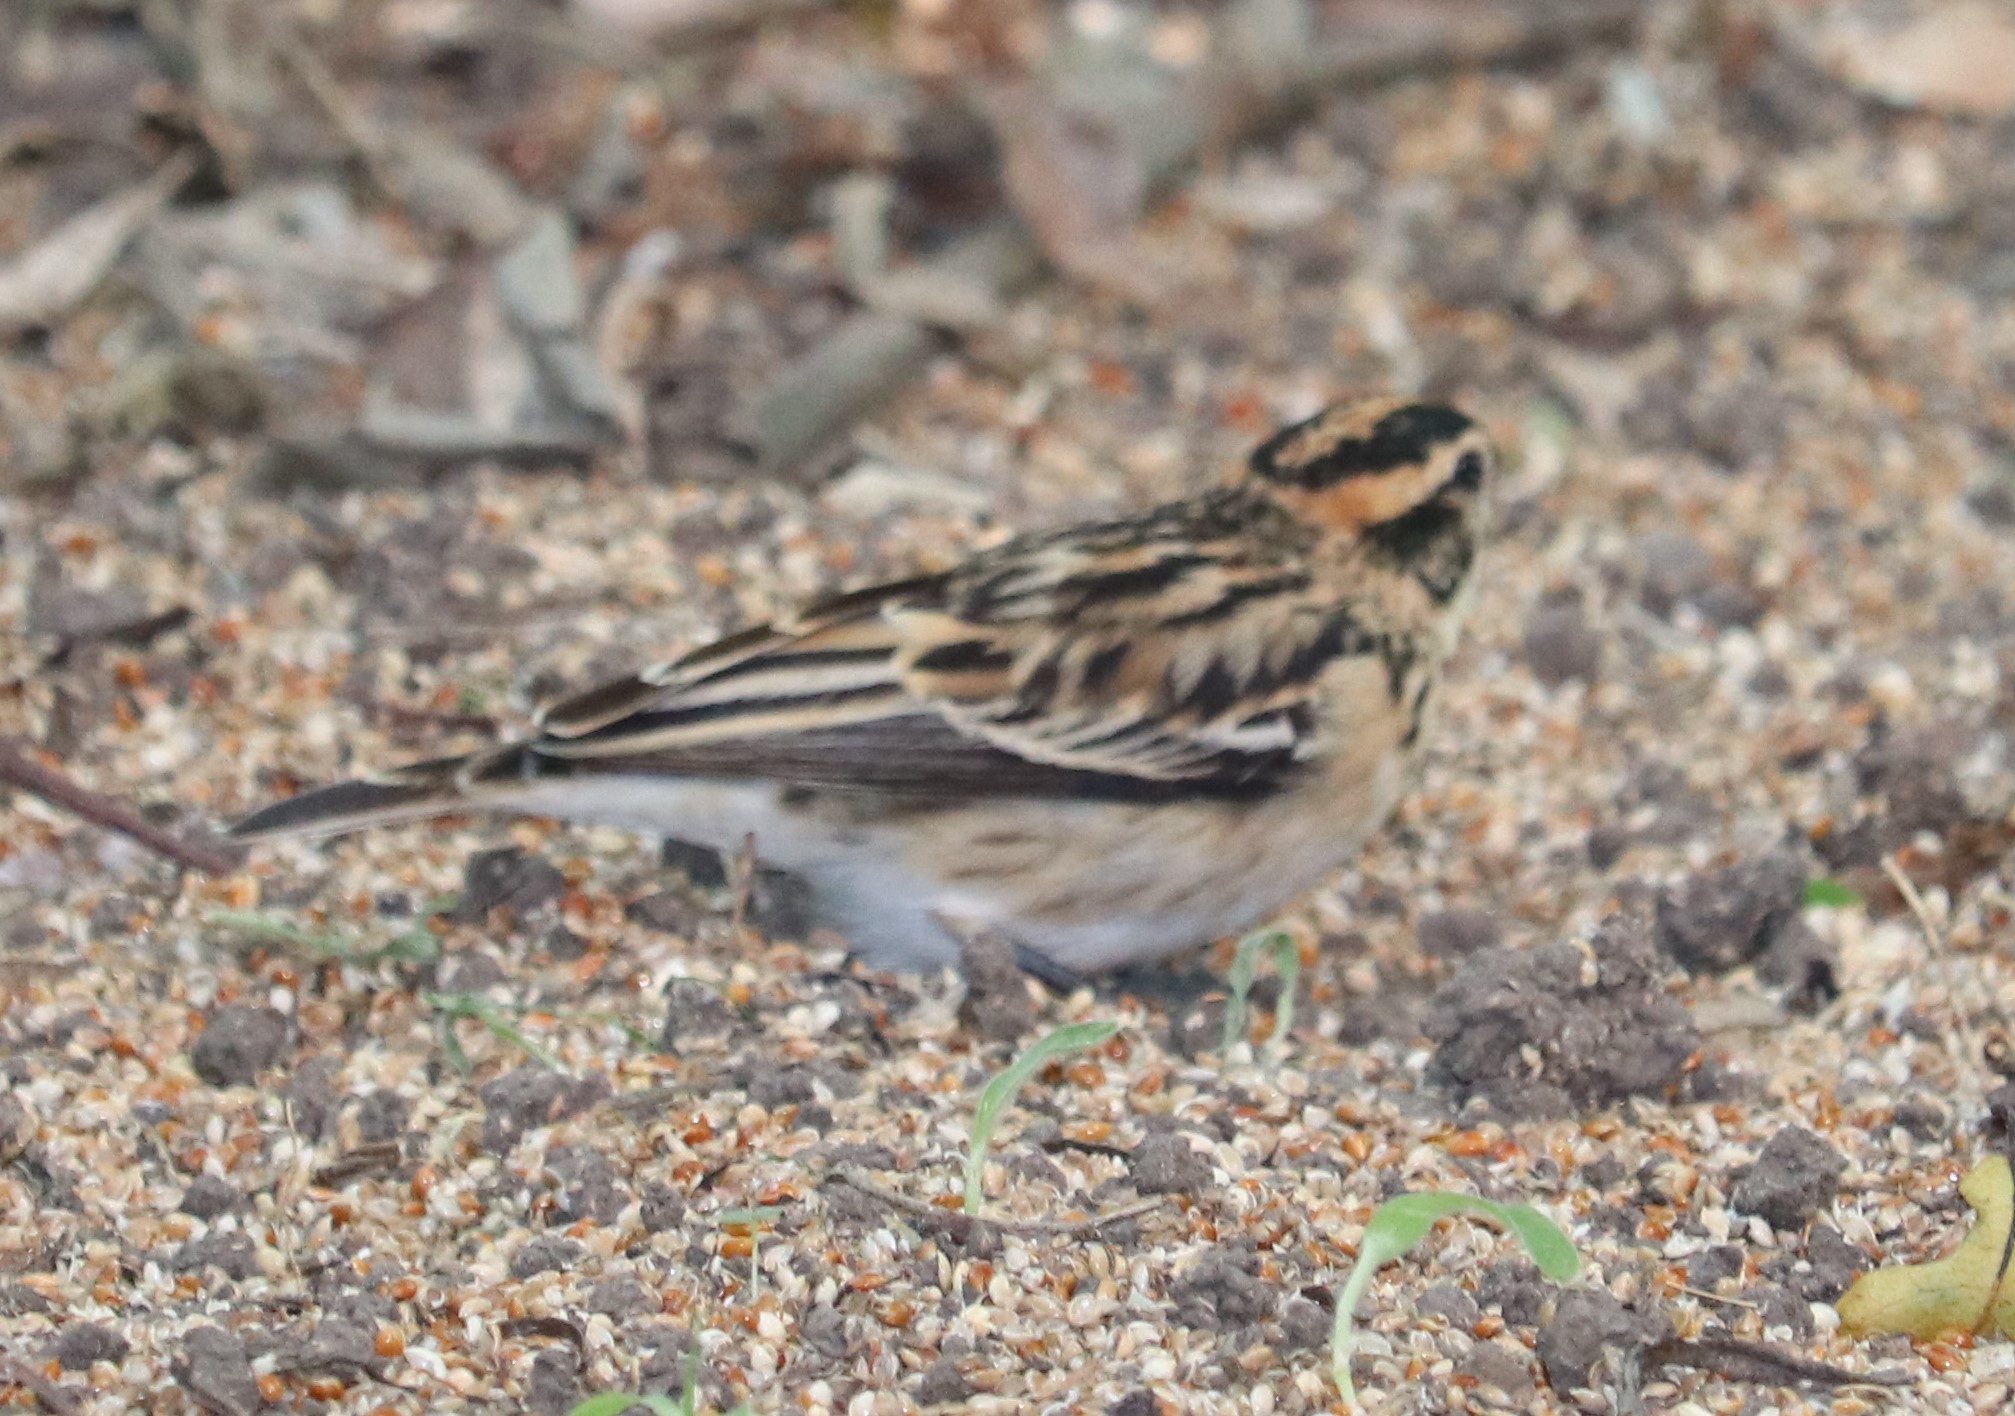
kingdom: Animalia
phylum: Chordata
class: Aves
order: Passeriformes
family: Viduidae
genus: Vidua
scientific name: Vidua macroura
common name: Pin-tailed whydah
